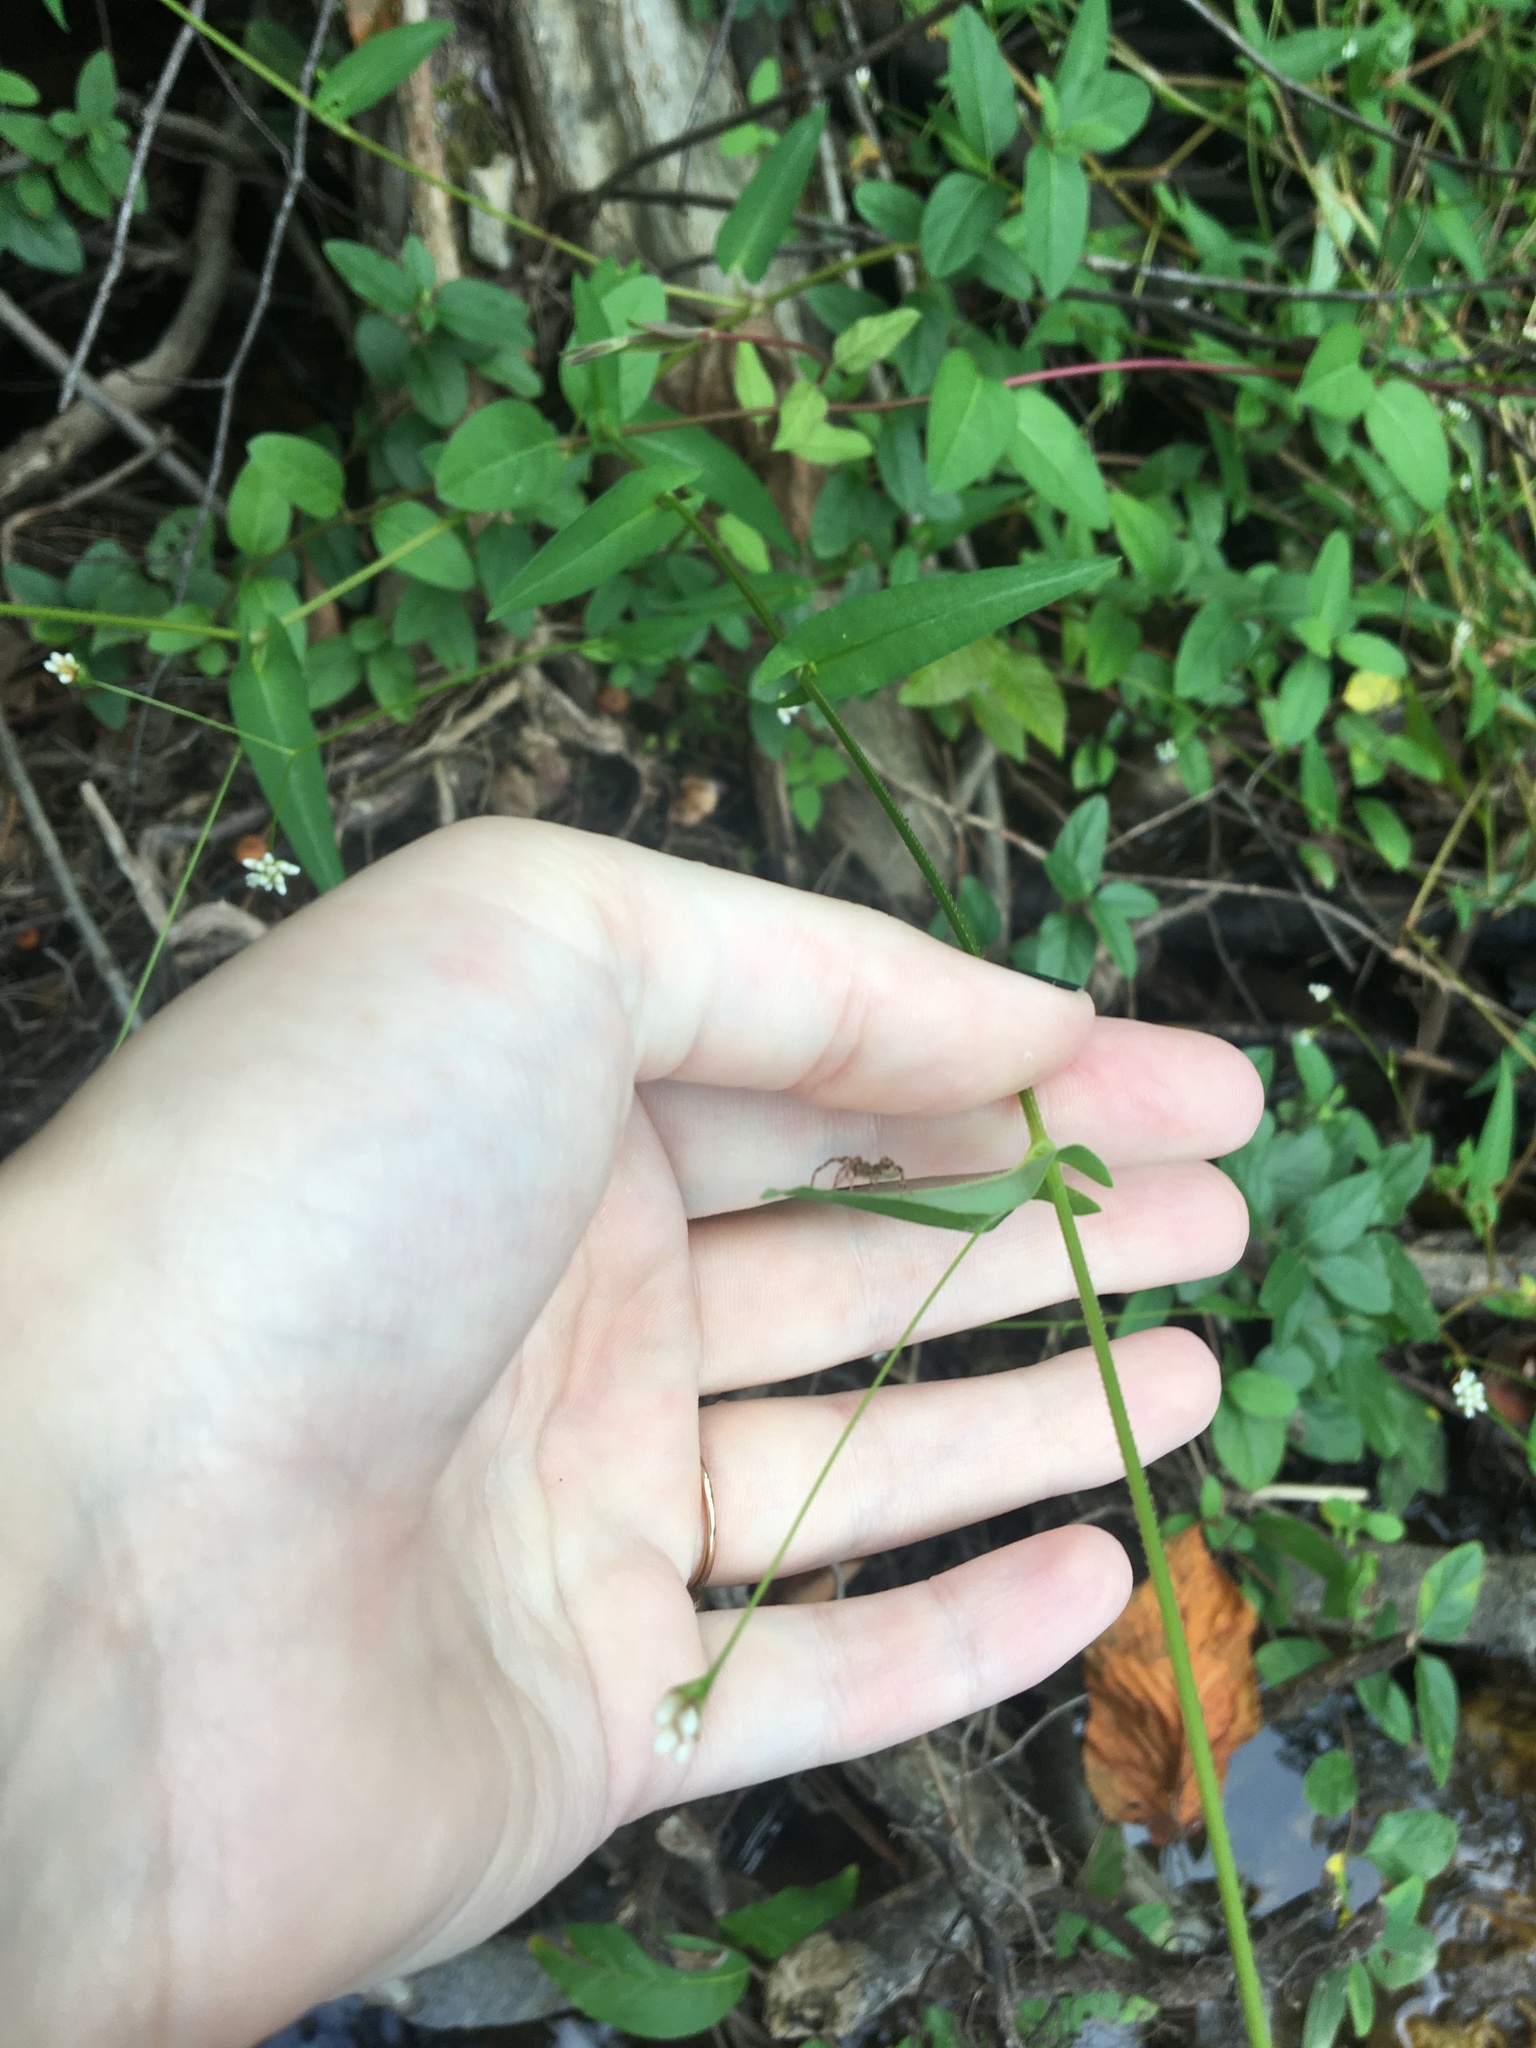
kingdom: Plantae
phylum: Tracheophyta
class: Magnoliopsida
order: Caryophyllales
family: Polygonaceae
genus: Persicaria
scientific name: Persicaria sagittata
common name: American tearthumb
